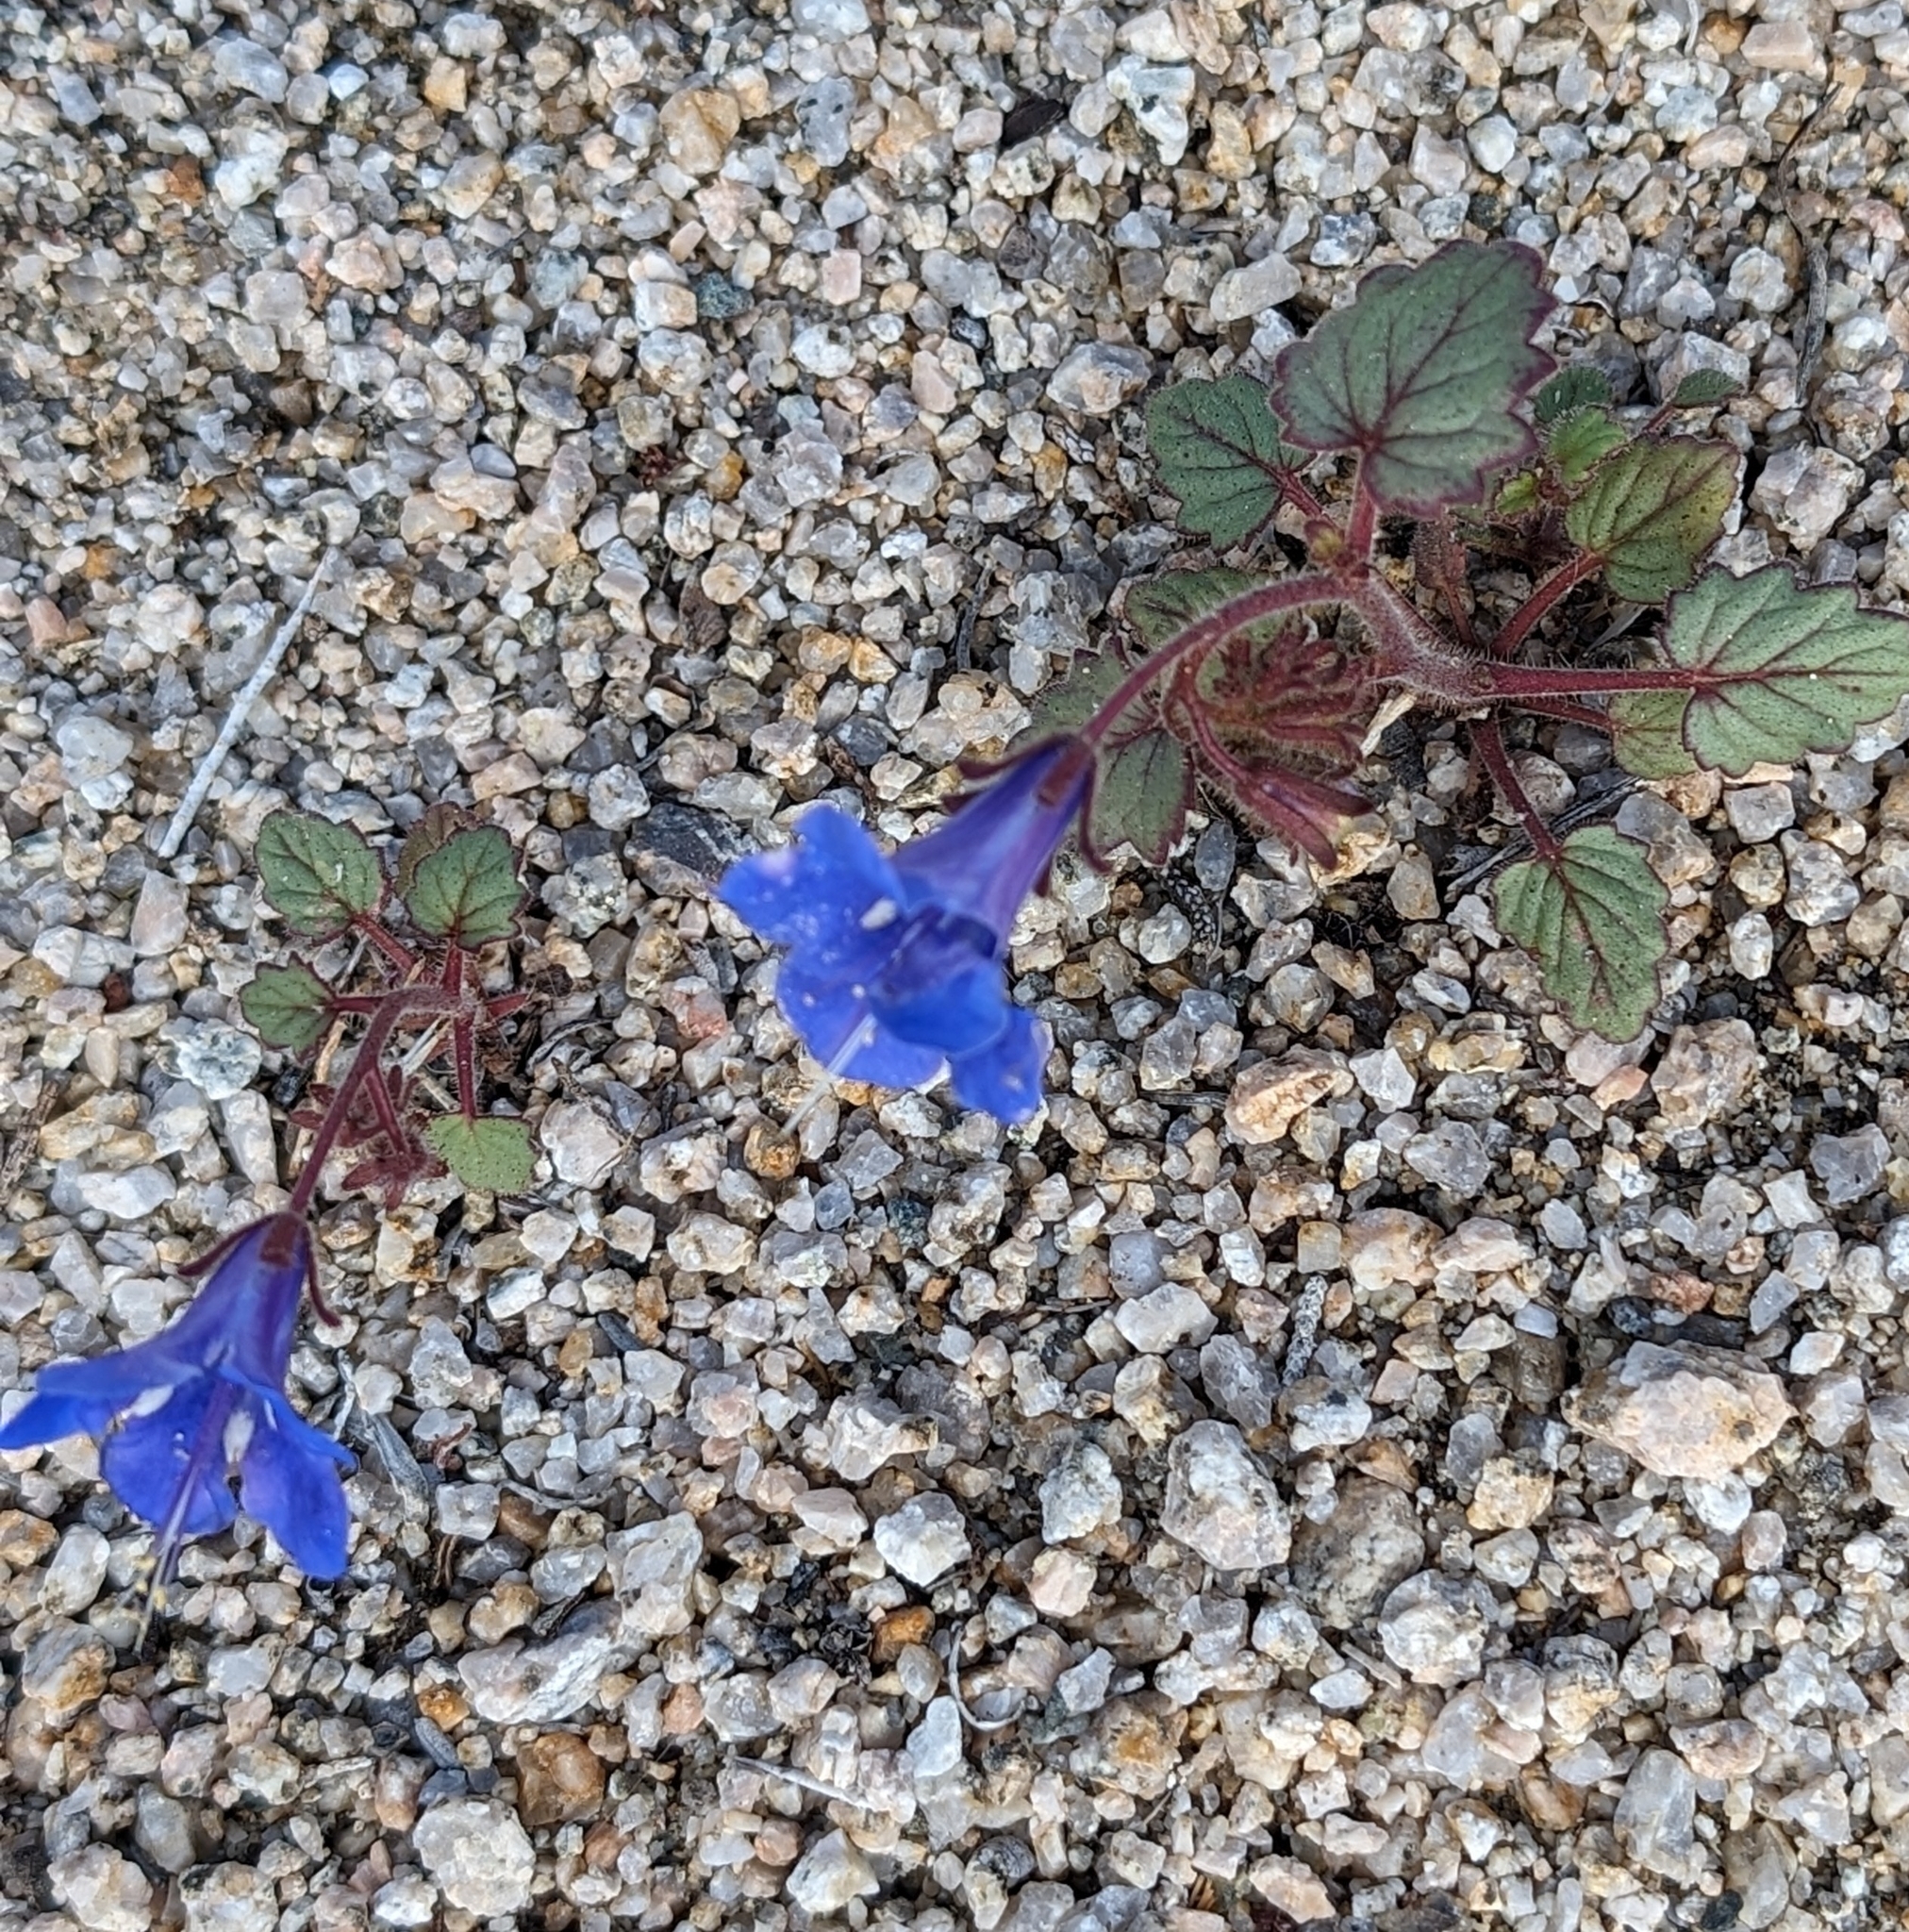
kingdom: Plantae
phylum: Tracheophyta
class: Magnoliopsida
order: Boraginales
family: Hydrophyllaceae
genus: Phacelia
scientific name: Phacelia campanularia
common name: California bluebell
